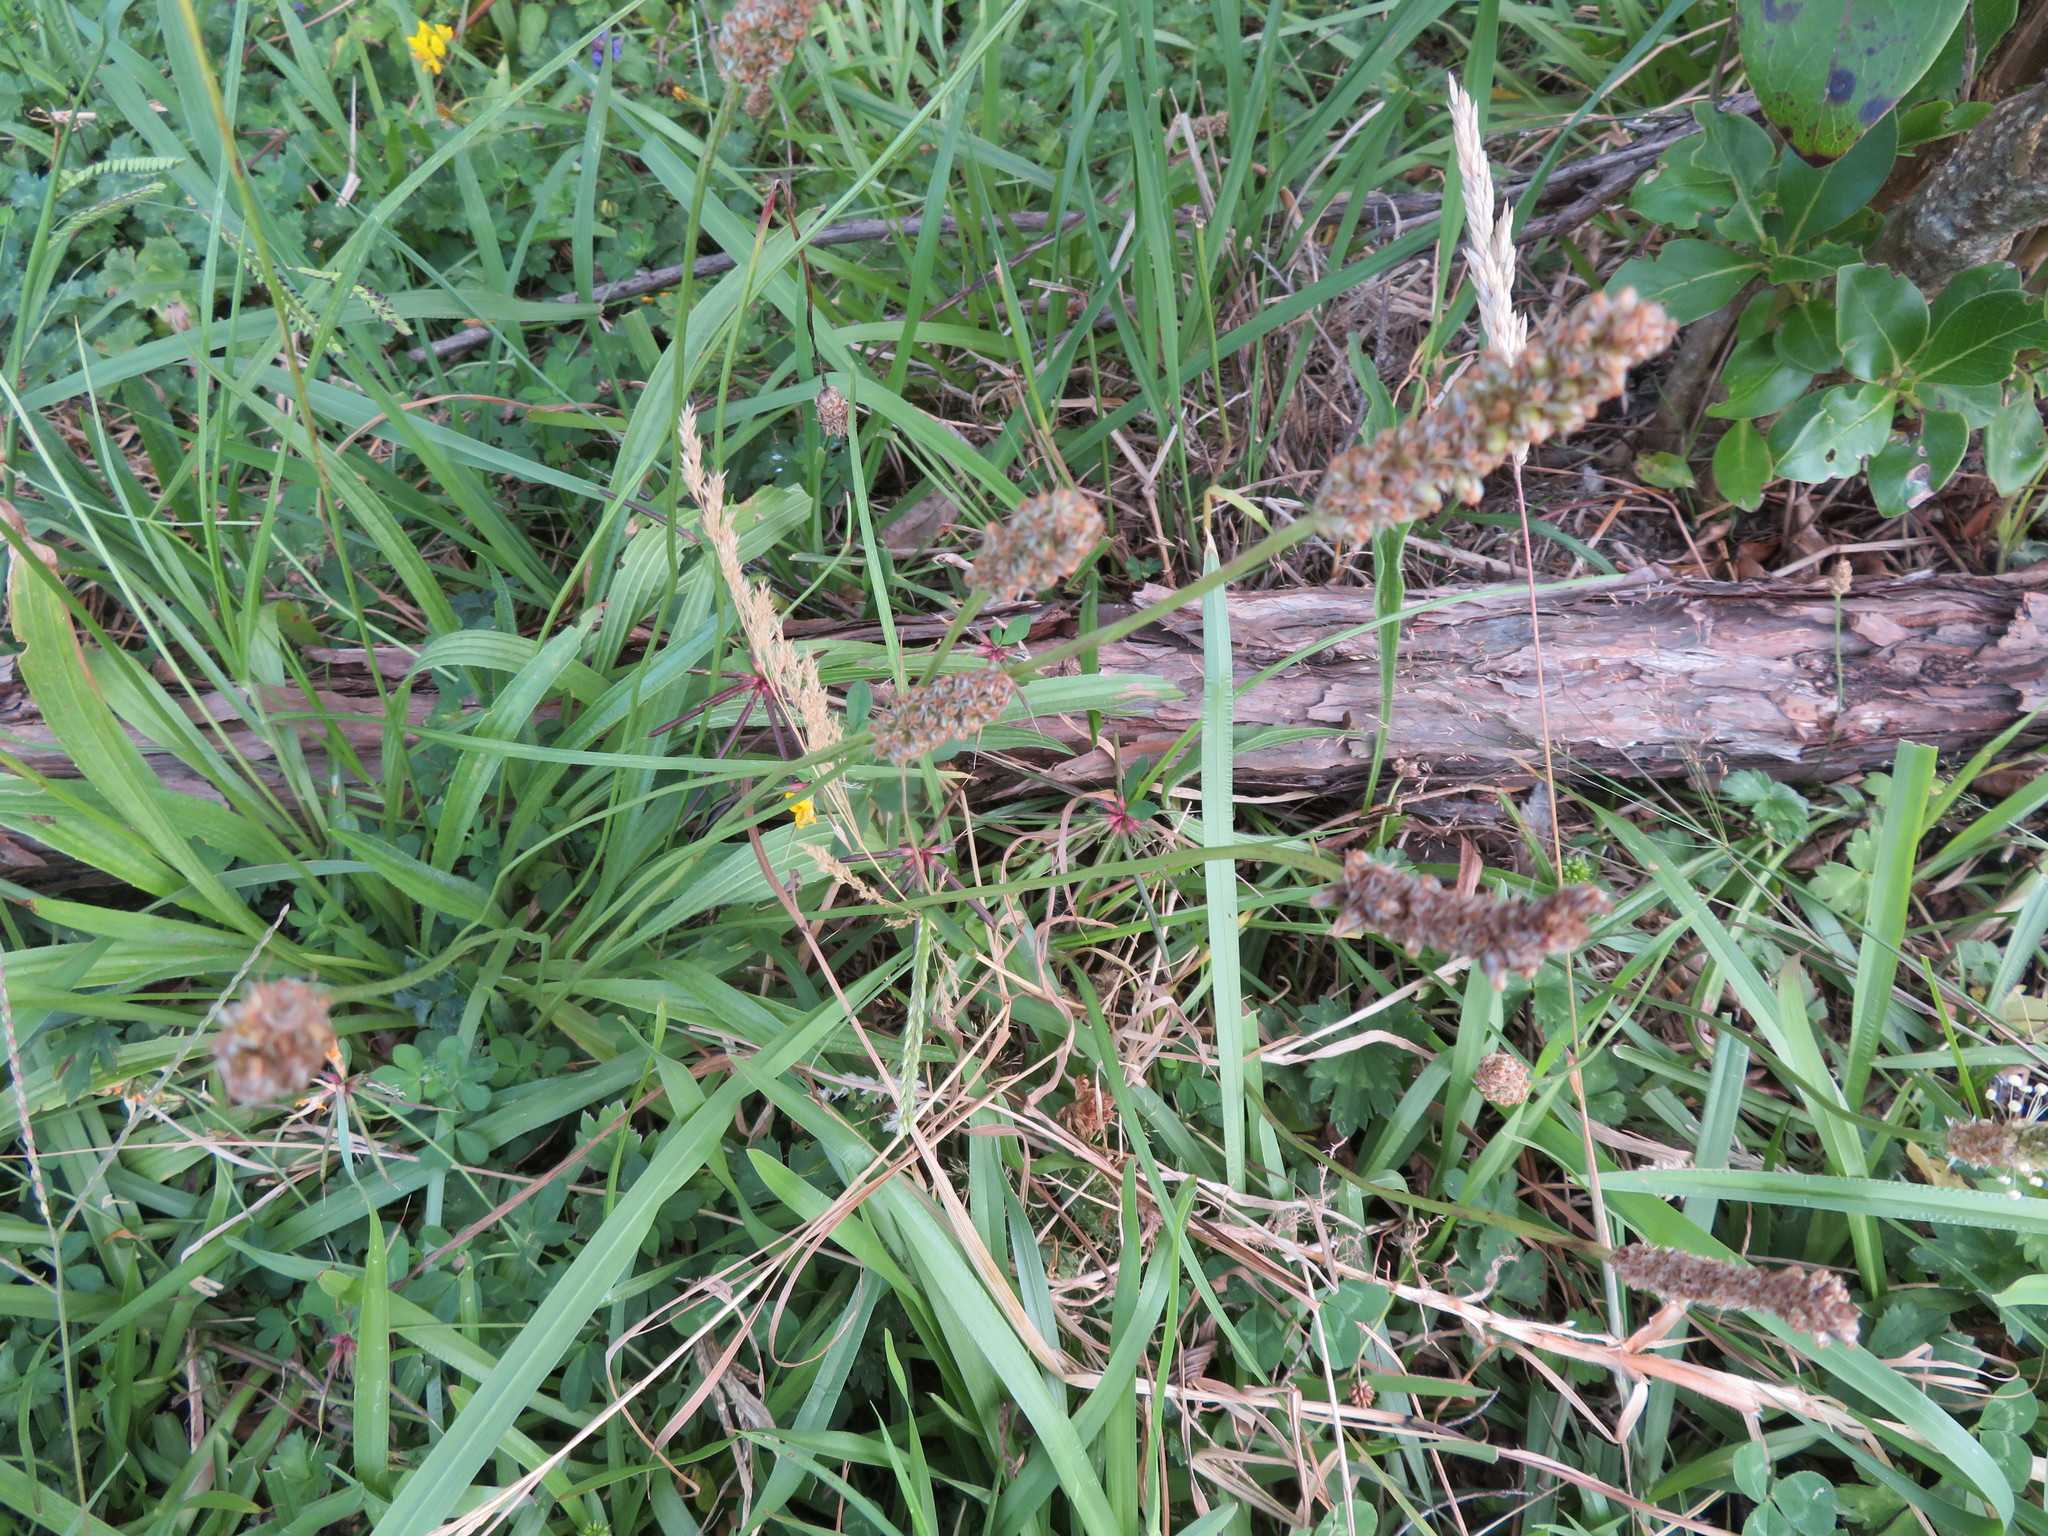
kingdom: Plantae
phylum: Tracheophyta
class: Liliopsida
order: Poales
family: Poaceae
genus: Holcus
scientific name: Holcus lanatus
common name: Yorkshire-fog
